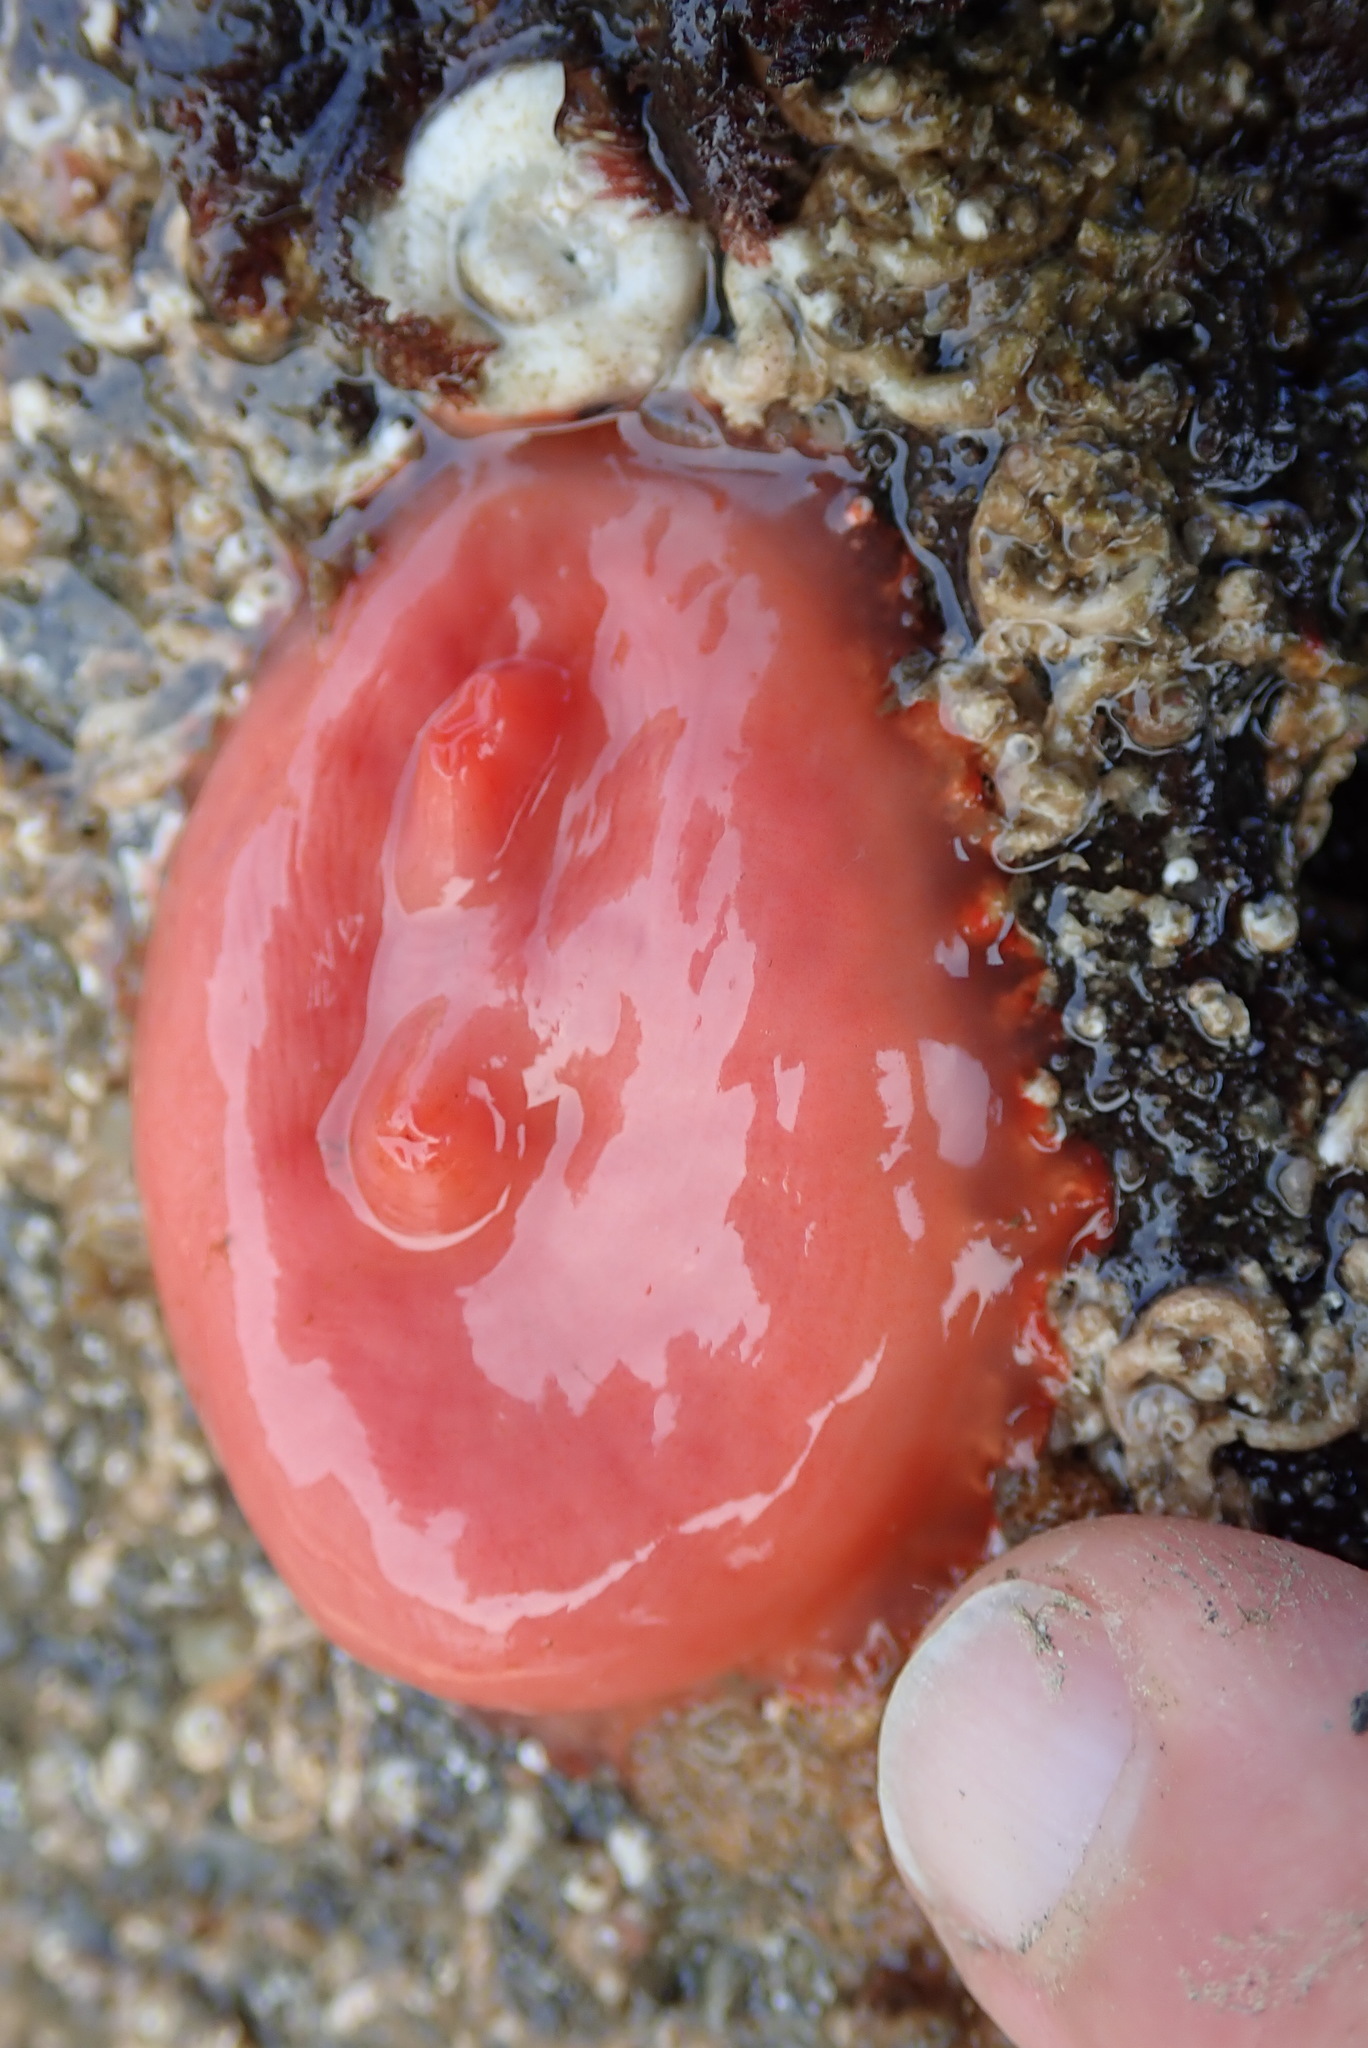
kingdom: Animalia
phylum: Chordata
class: Ascidiacea
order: Stolidobranchia
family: Styelidae
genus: Cnemidocarpa
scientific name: Cnemidocarpa finmarkiensis
